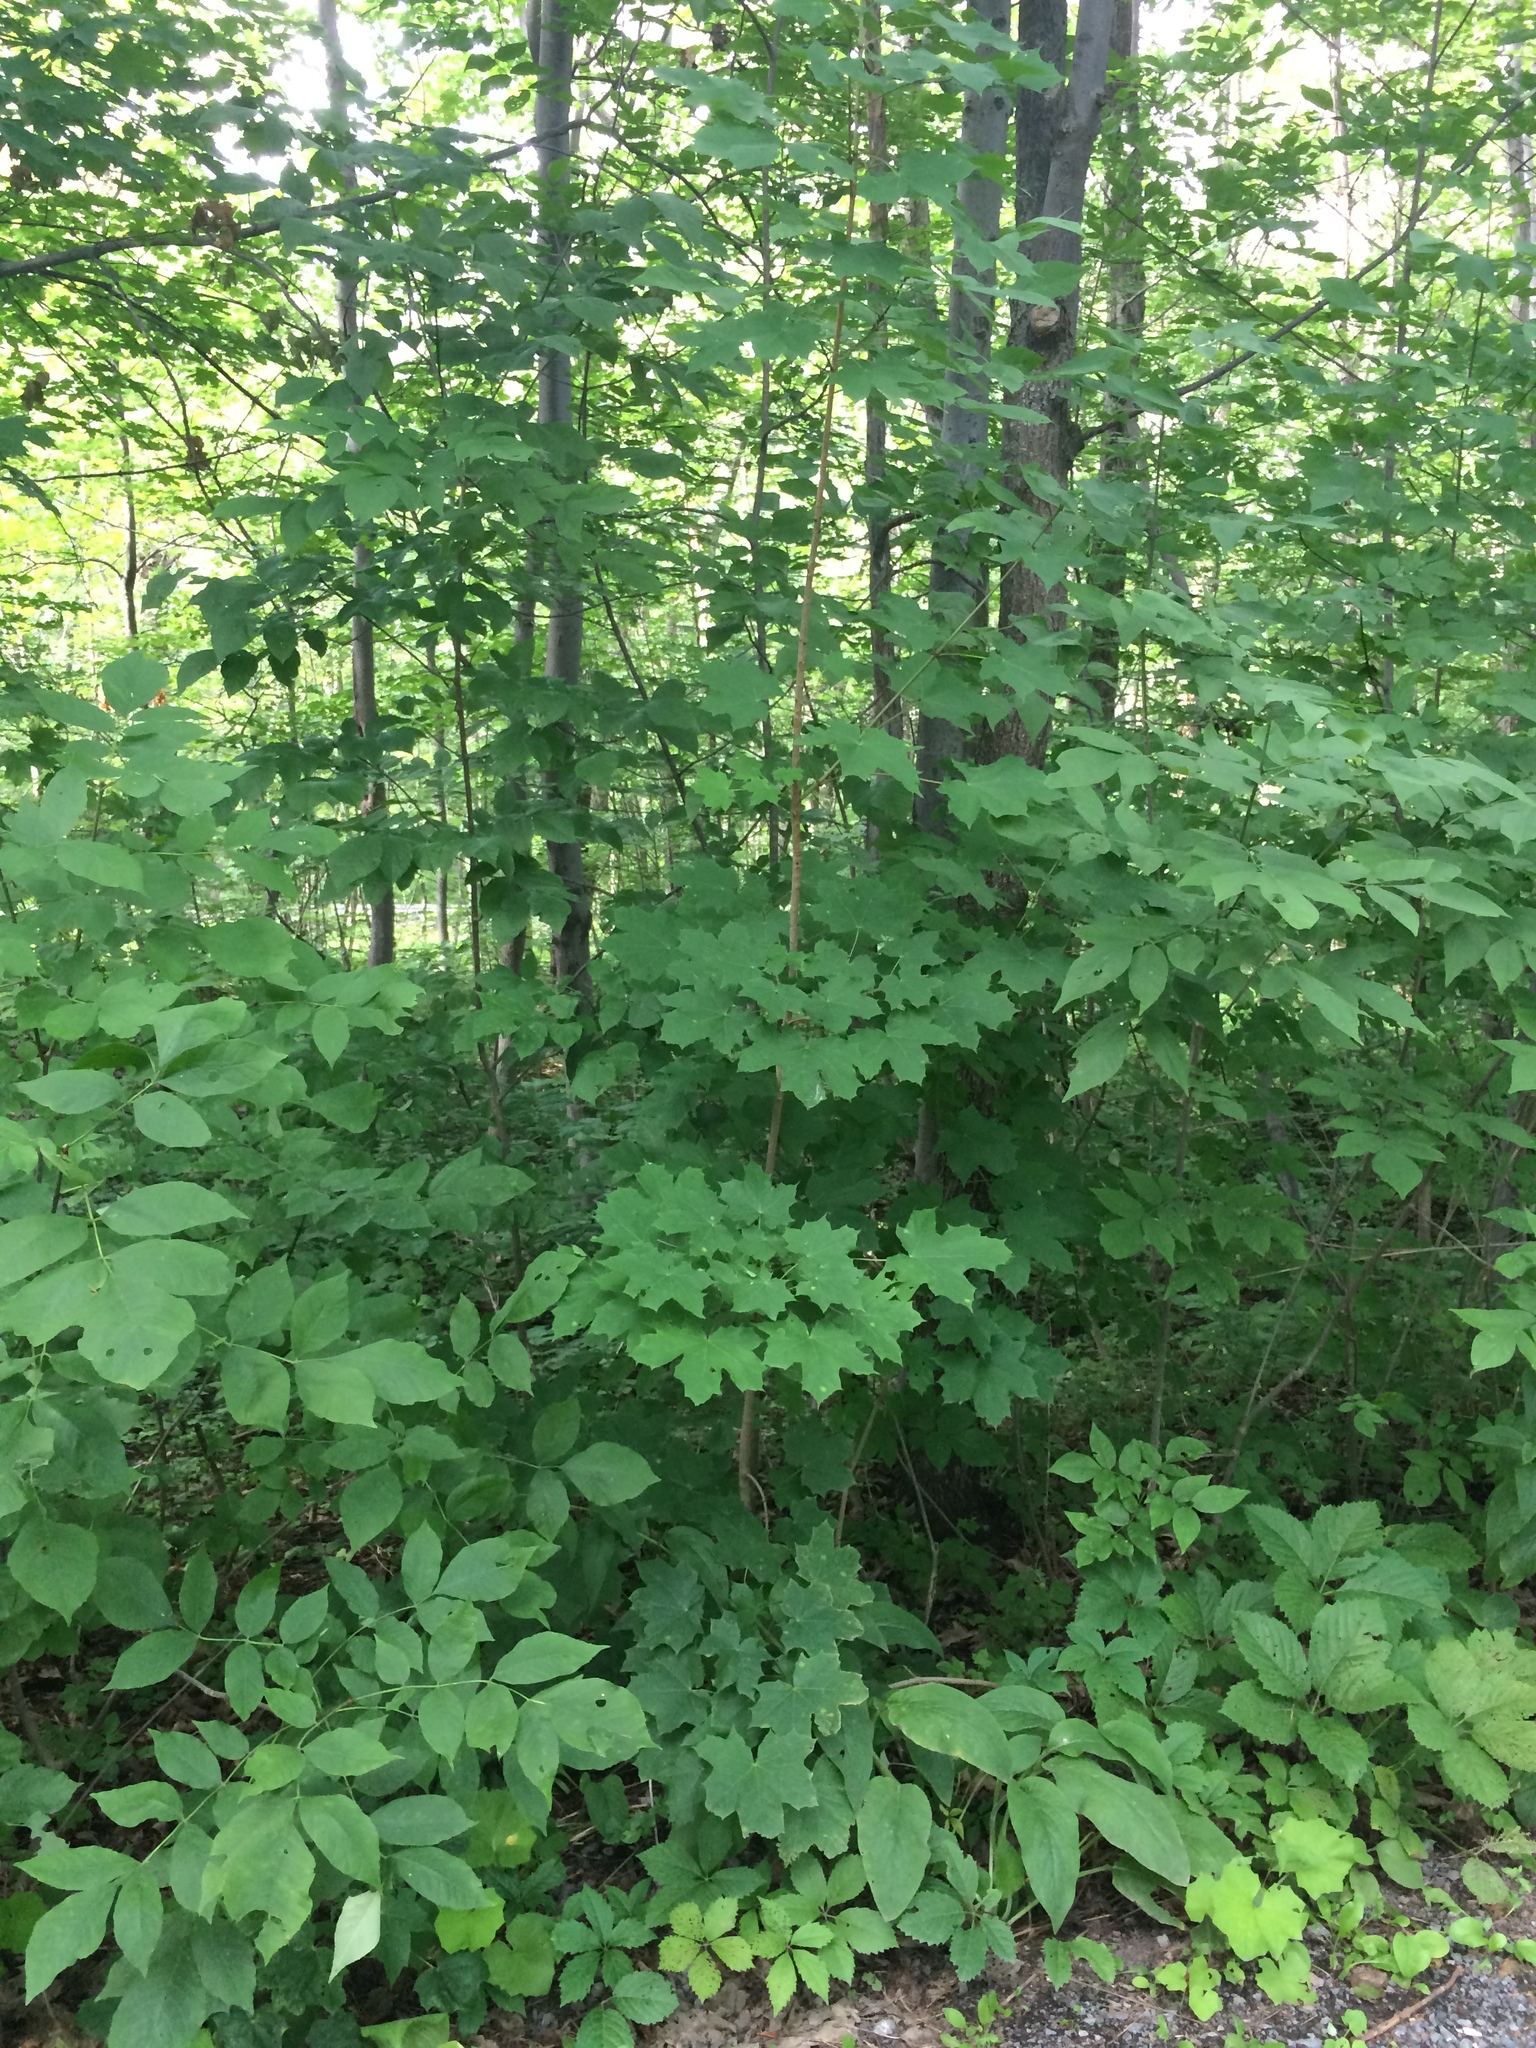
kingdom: Plantae
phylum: Tracheophyta
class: Magnoliopsida
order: Sapindales
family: Sapindaceae
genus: Acer
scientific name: Acer platanoides
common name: Norway maple
